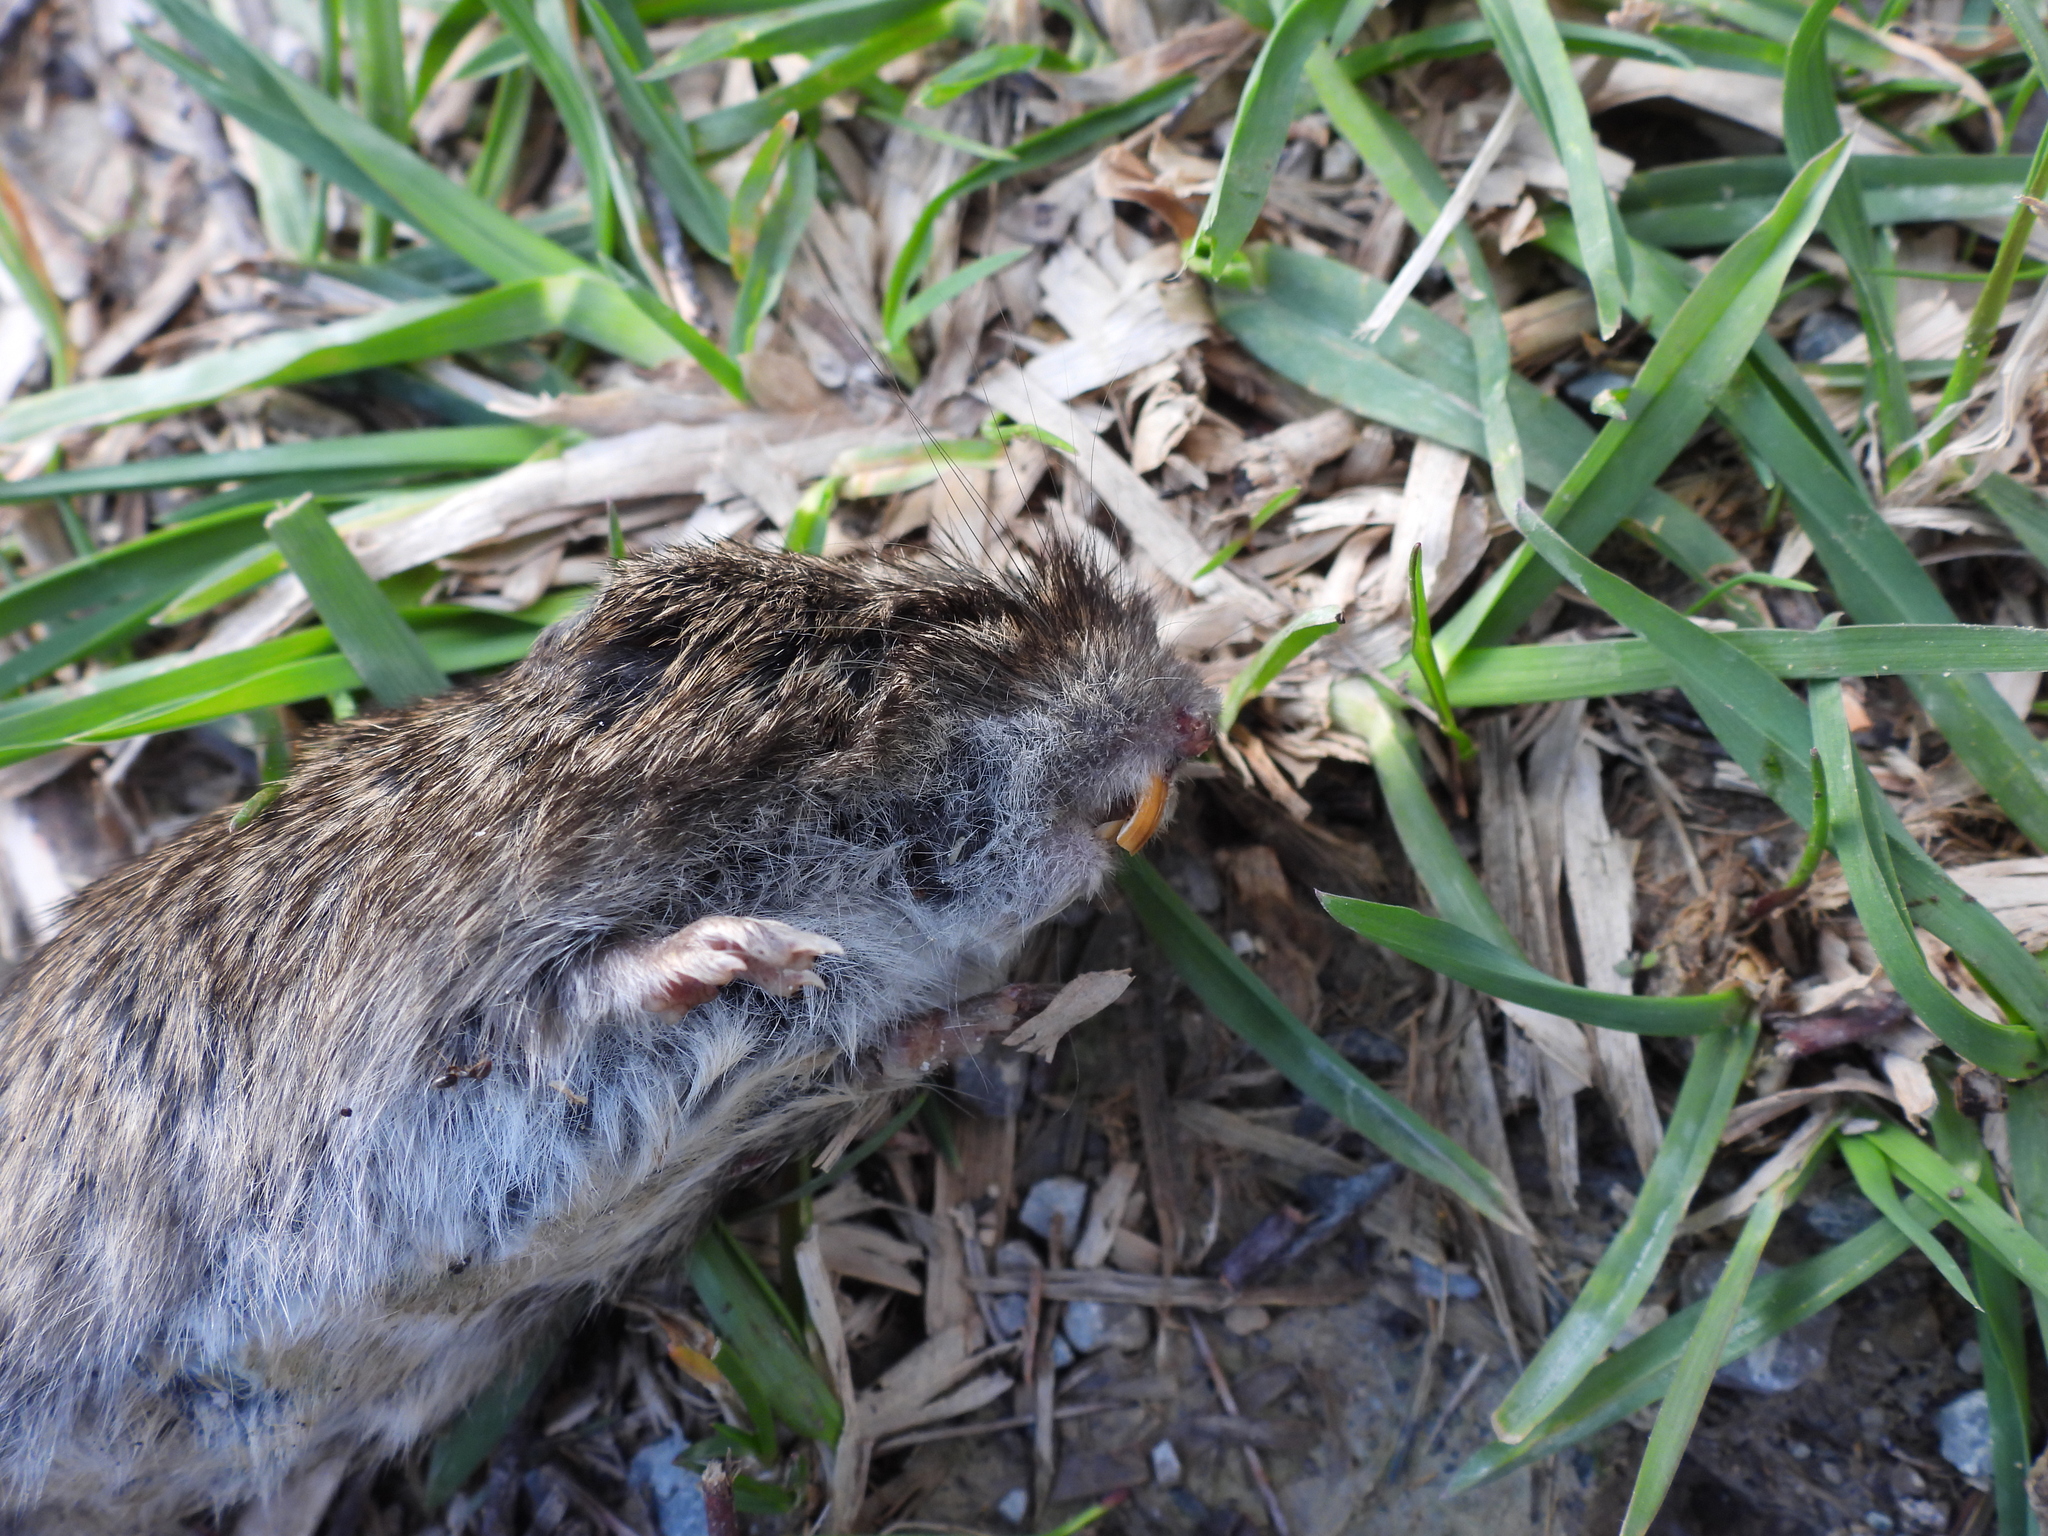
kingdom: Animalia
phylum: Chordata
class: Mammalia
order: Rodentia
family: Cricetidae
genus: Microtus
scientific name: Microtus pennsylvanicus
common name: Meadow vole
